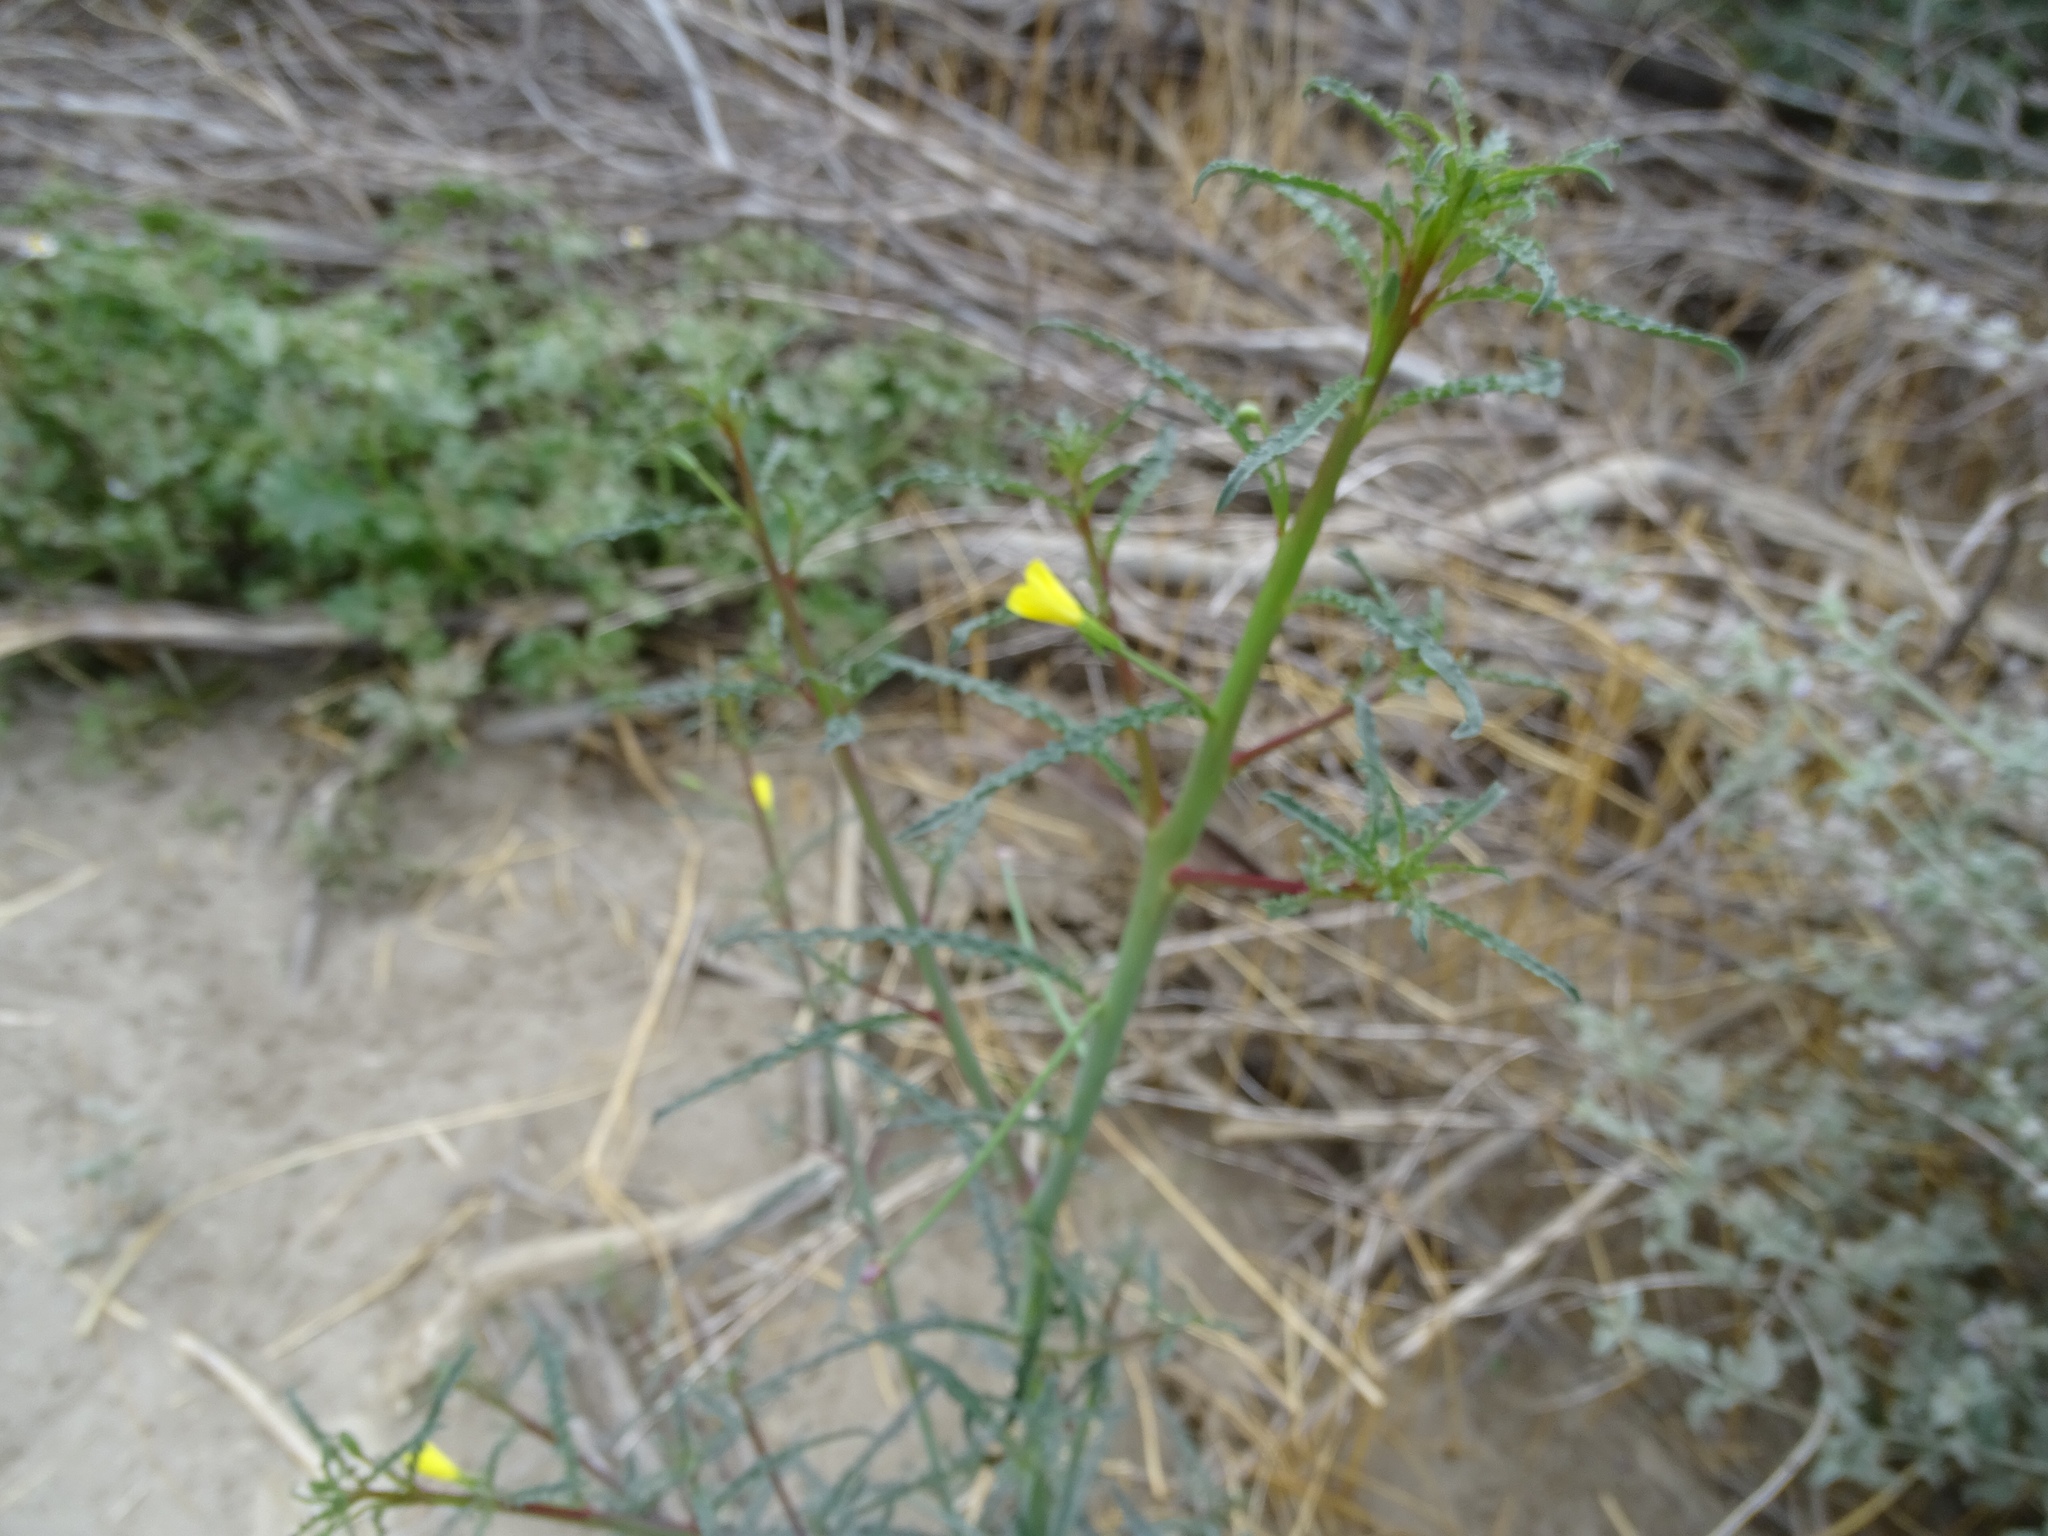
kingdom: Plantae
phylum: Tracheophyta
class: Magnoliopsida
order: Myrtales
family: Onagraceae
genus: Eulobus
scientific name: Eulobus californicus
